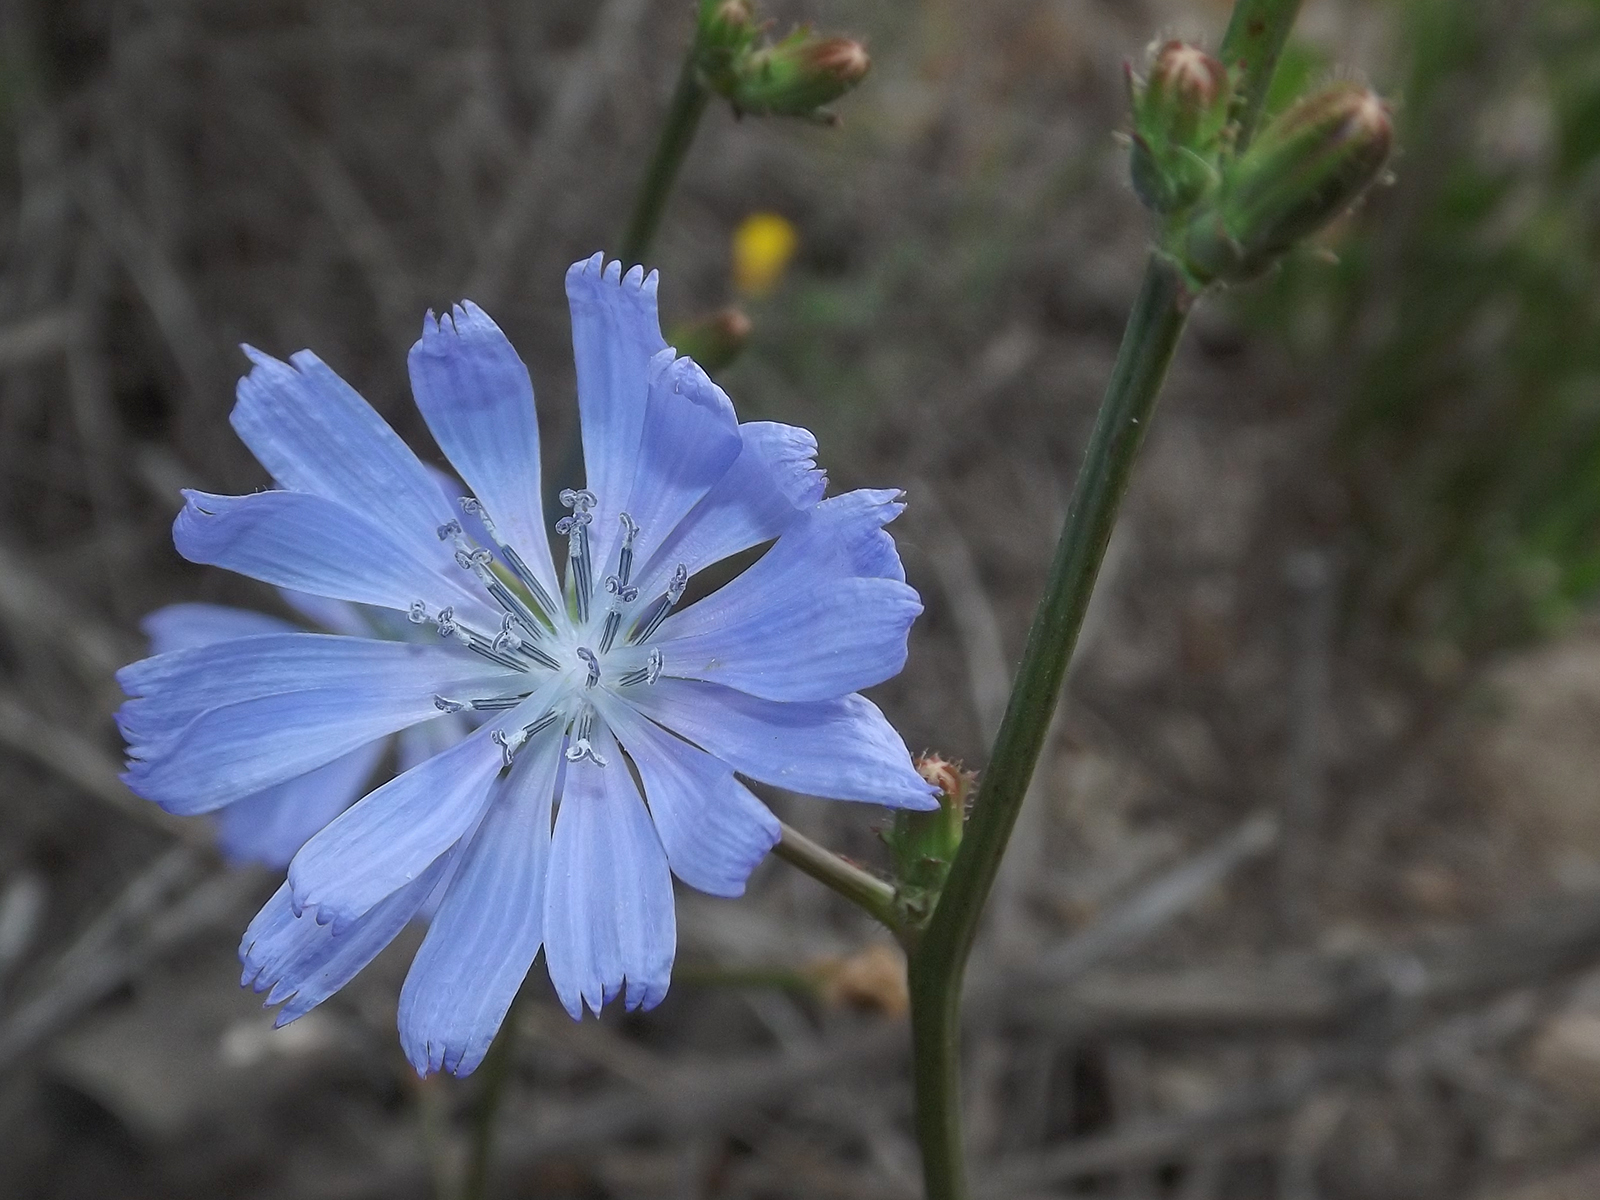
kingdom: Plantae
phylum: Tracheophyta
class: Magnoliopsida
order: Asterales
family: Asteraceae
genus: Cichorium
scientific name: Cichorium intybus
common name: Chicory
